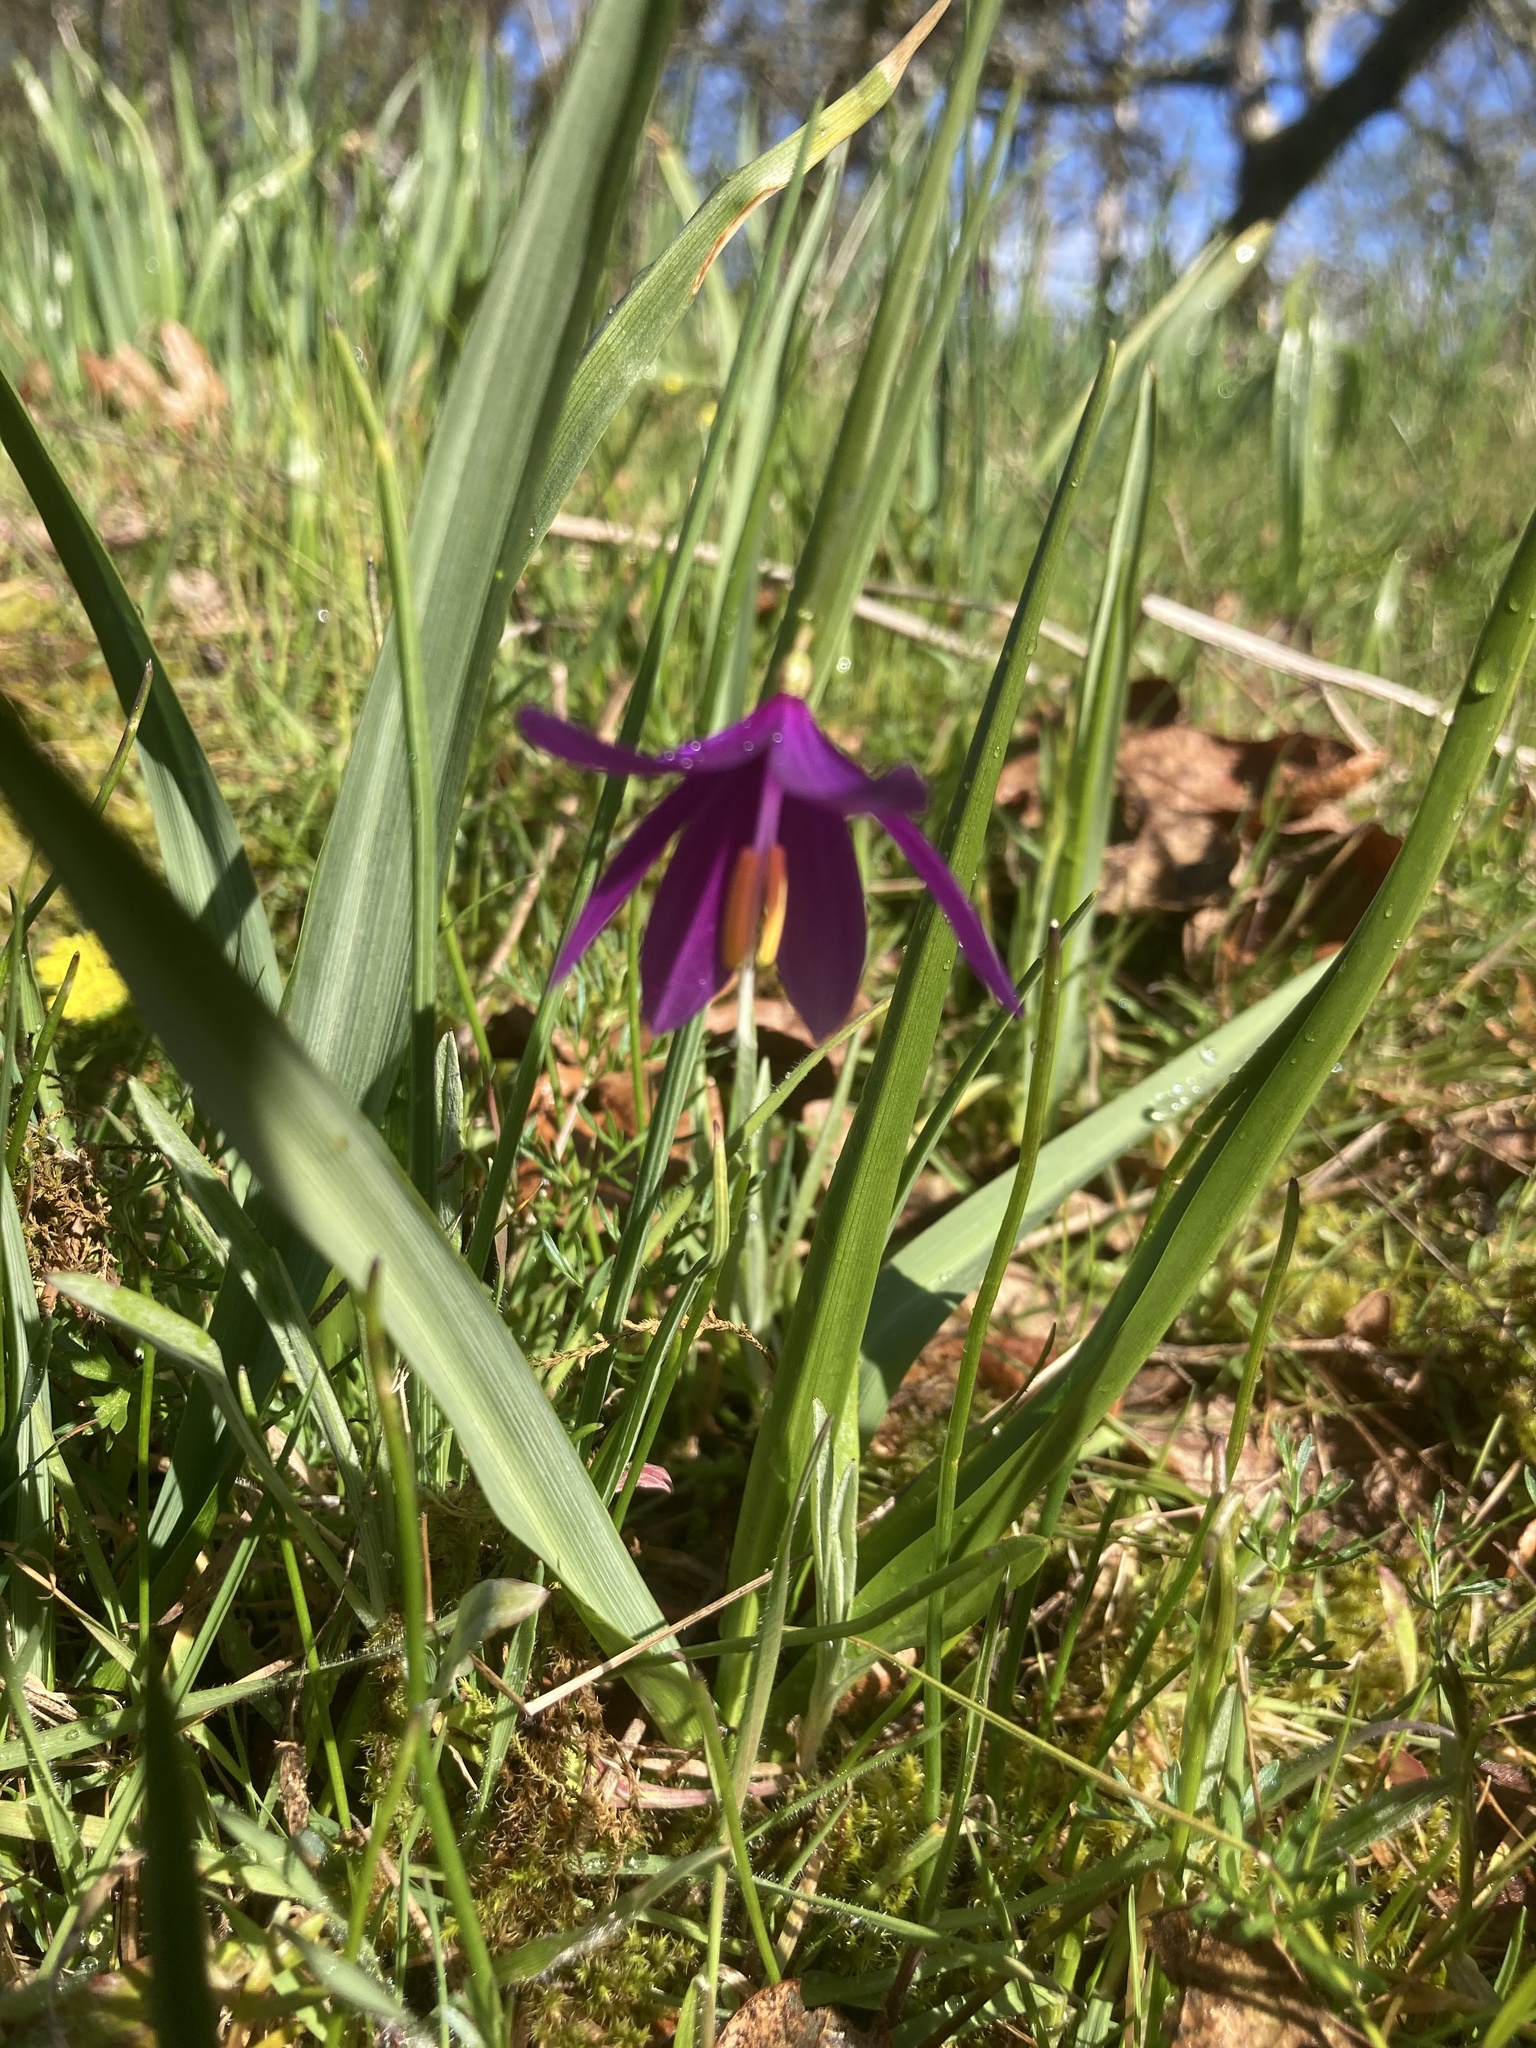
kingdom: Plantae
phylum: Tracheophyta
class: Liliopsida
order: Asparagales
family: Iridaceae
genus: Olsynium
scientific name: Olsynium douglasii
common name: Douglas' grasswidow
